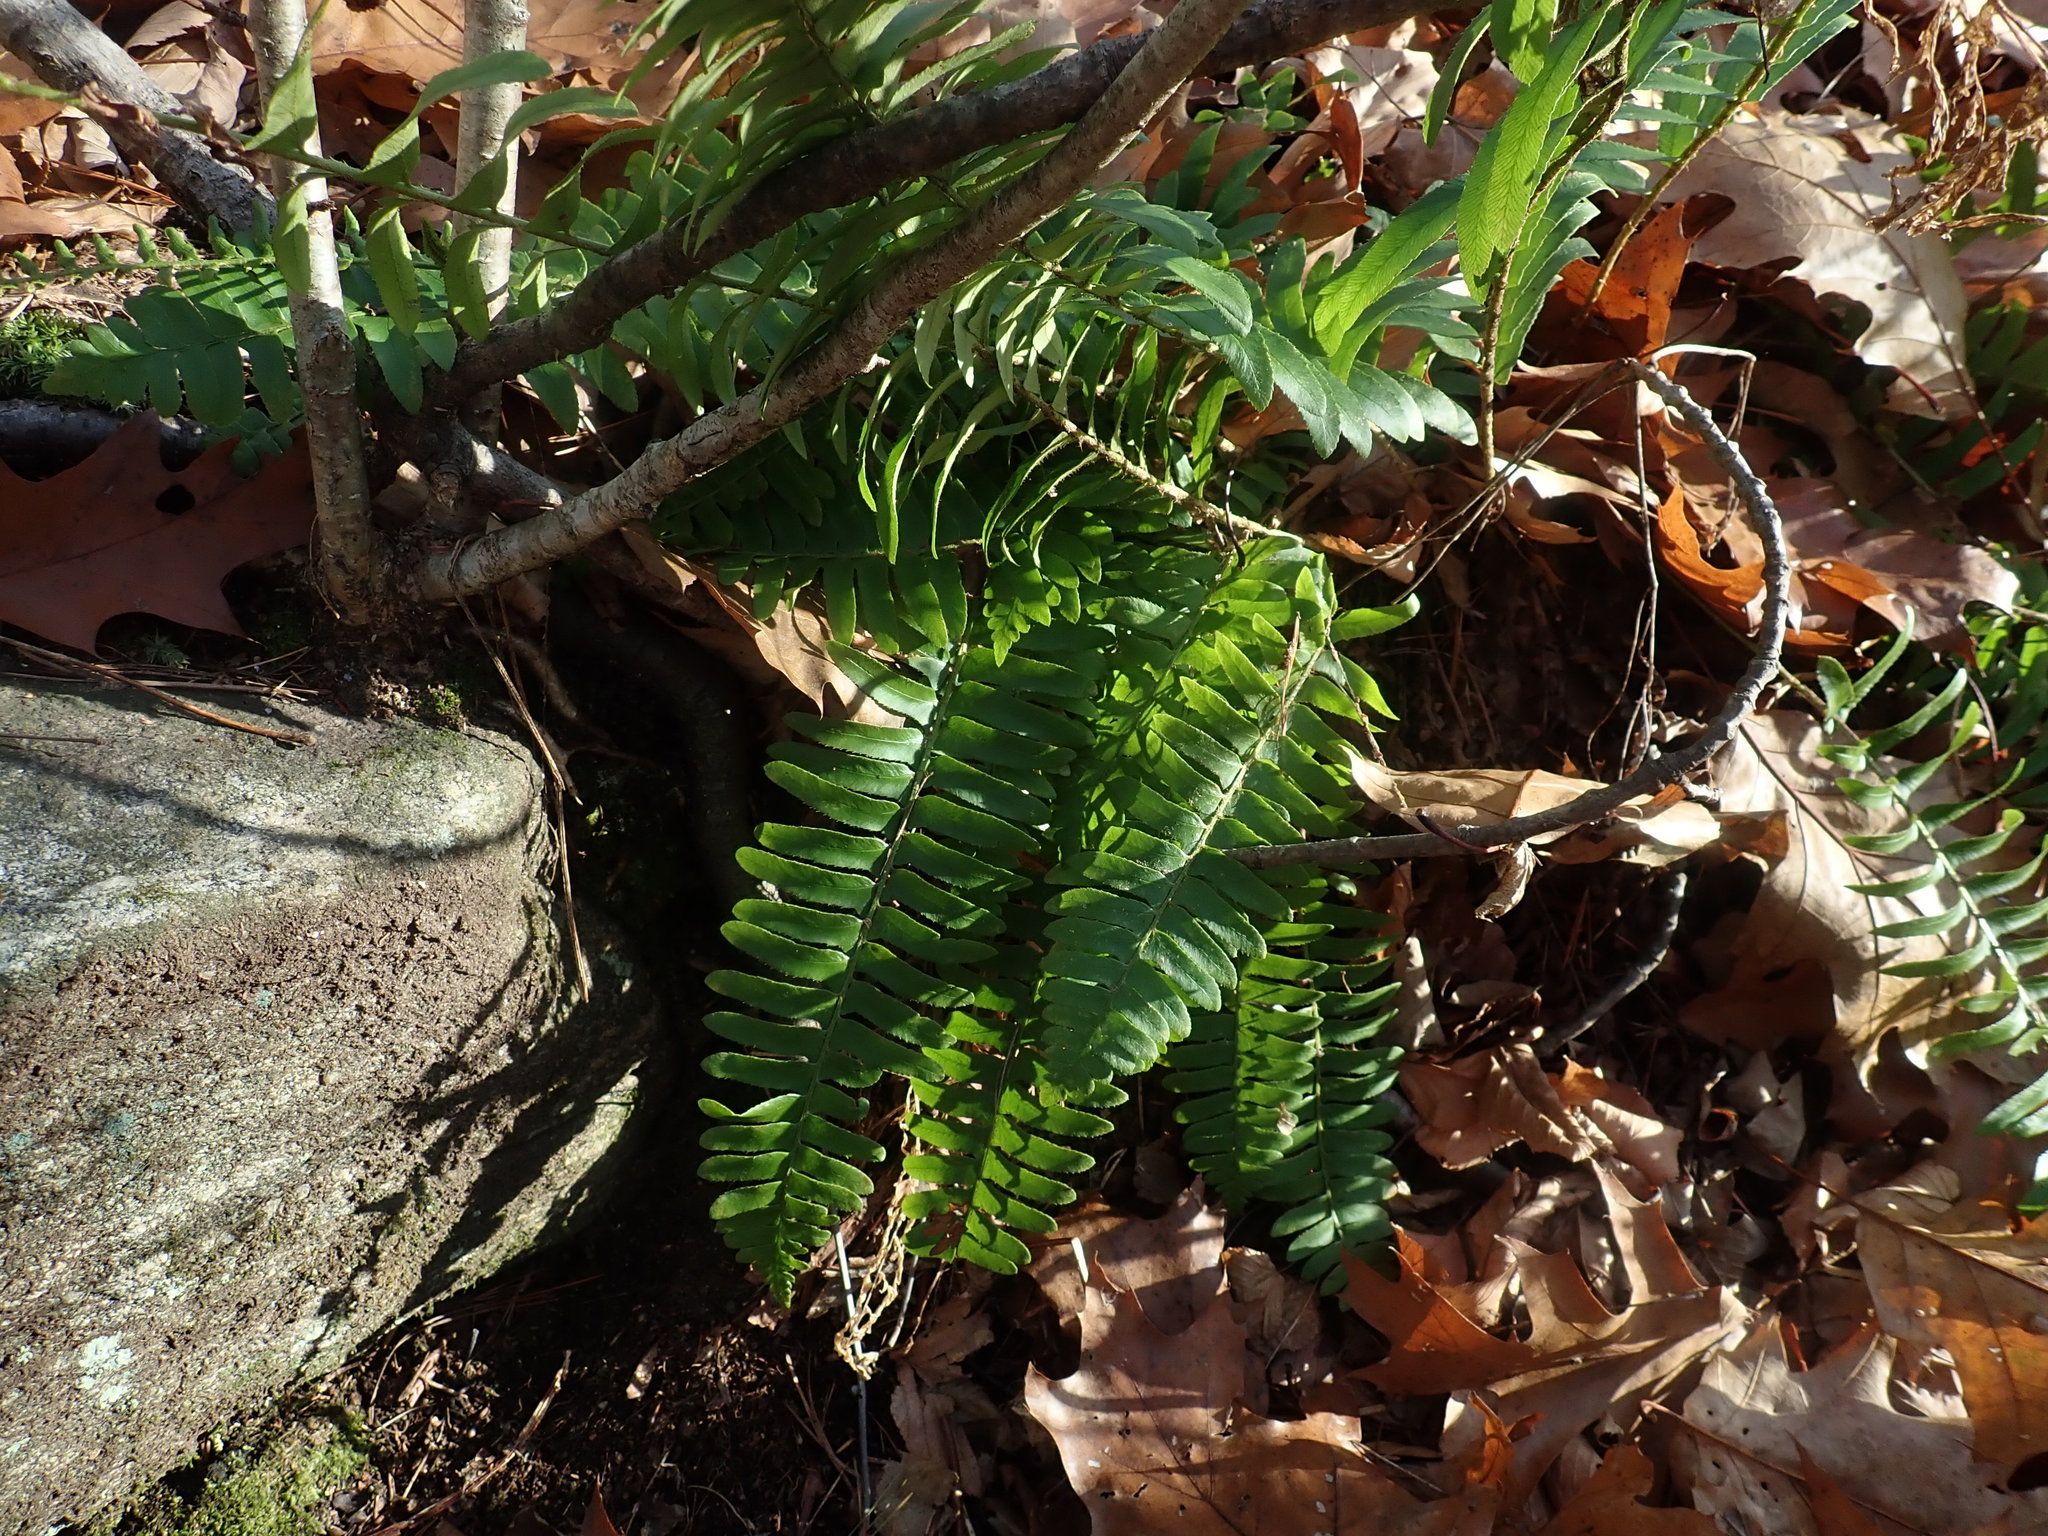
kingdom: Plantae
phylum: Tracheophyta
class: Polypodiopsida
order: Polypodiales
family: Dryopteridaceae
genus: Polystichum
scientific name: Polystichum acrostichoides
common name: Christmas fern
